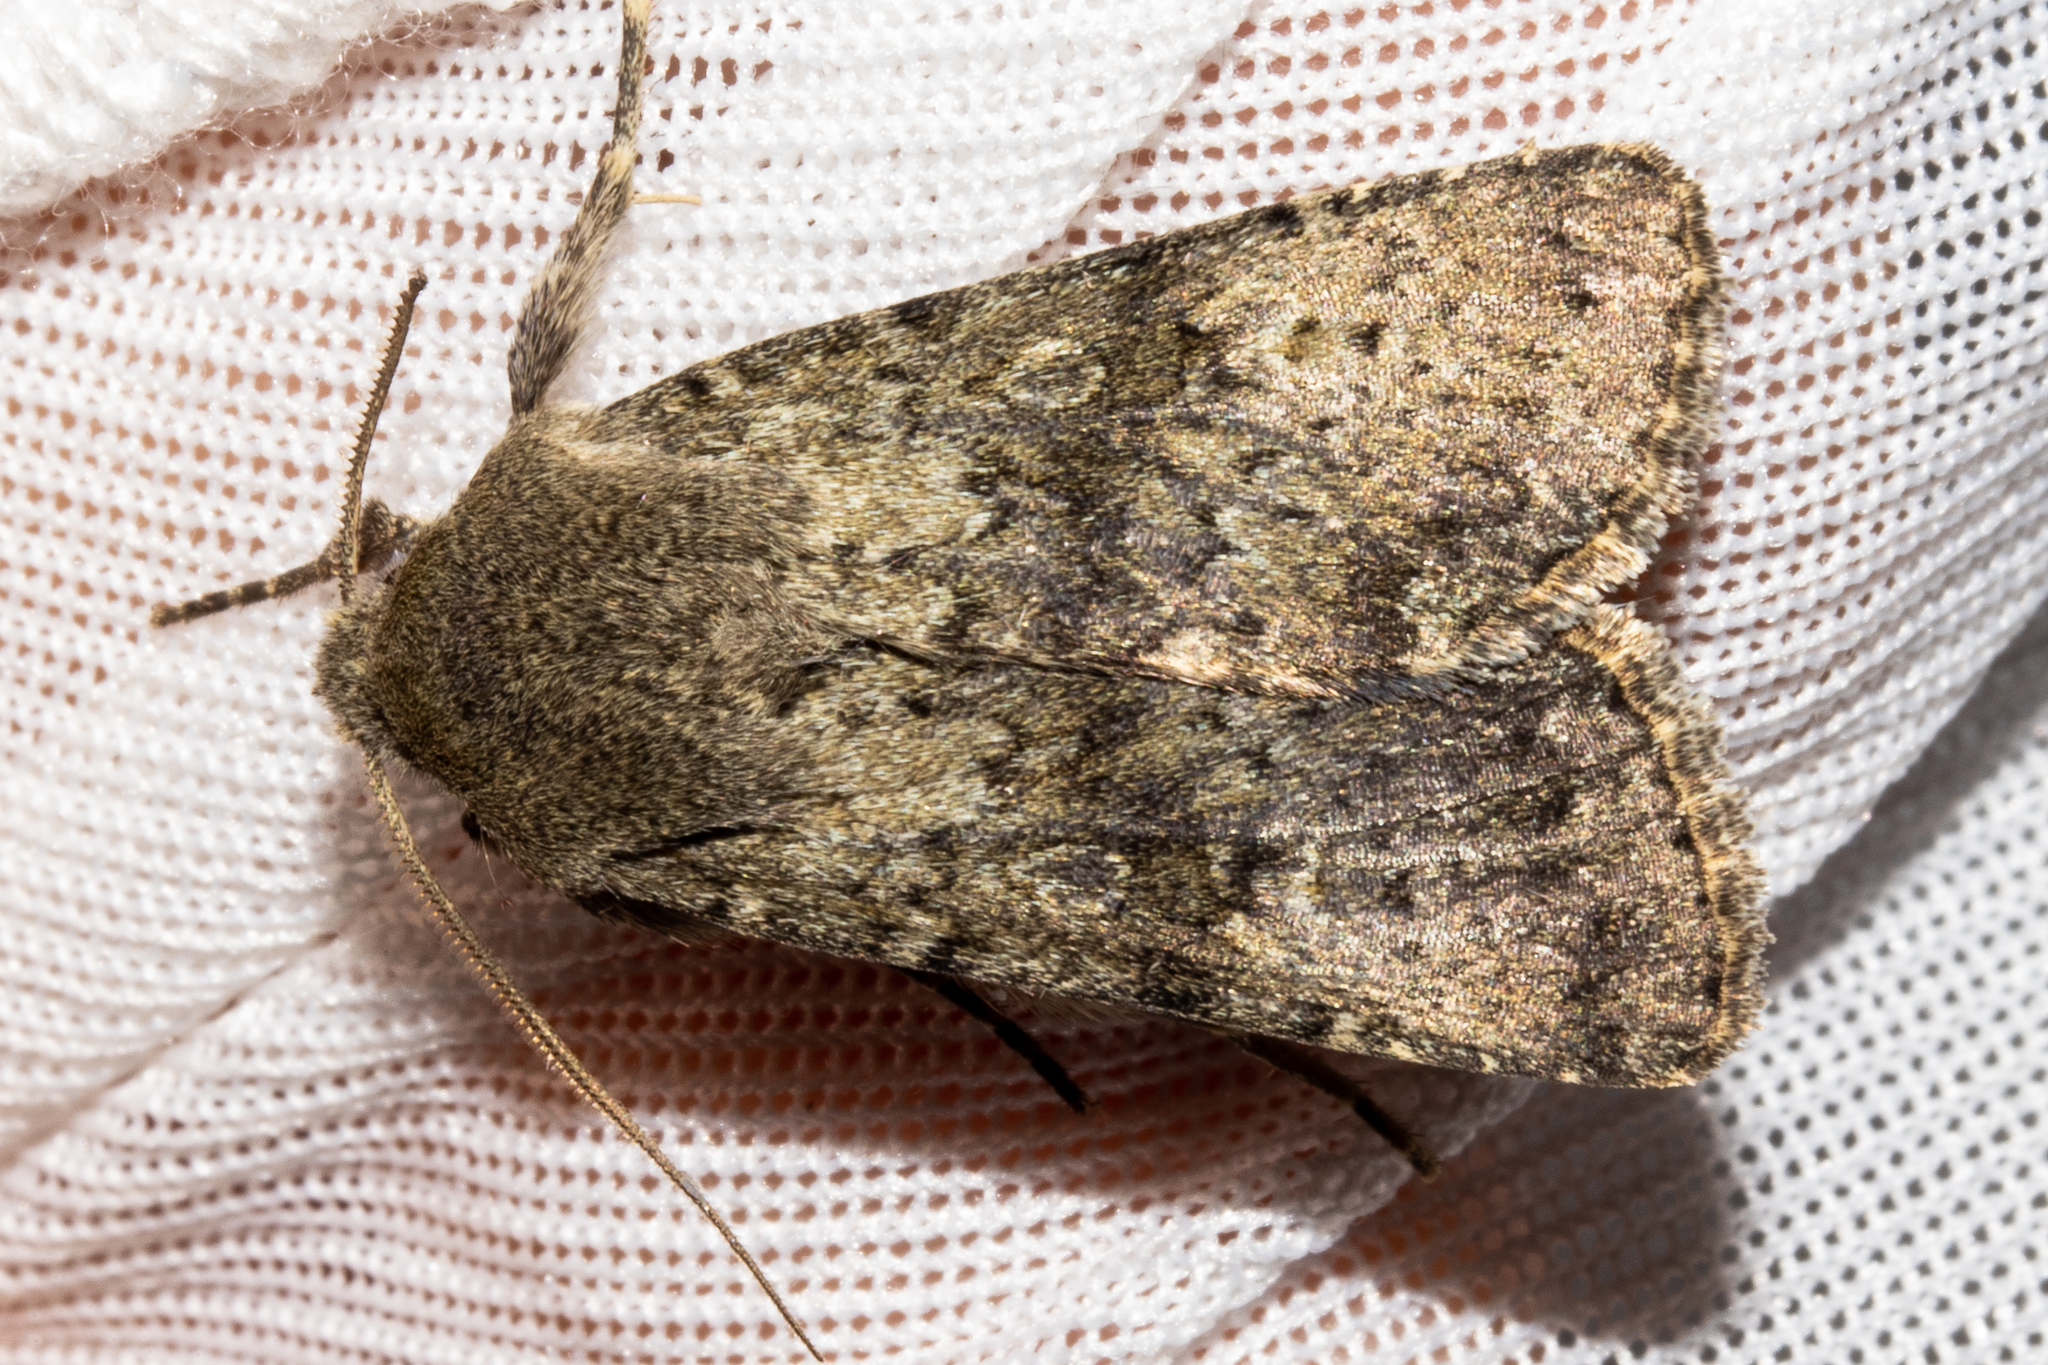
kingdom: Animalia
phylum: Arthropoda
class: Insecta
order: Lepidoptera
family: Noctuidae
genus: Ichneutica
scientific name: Ichneutica moderata
